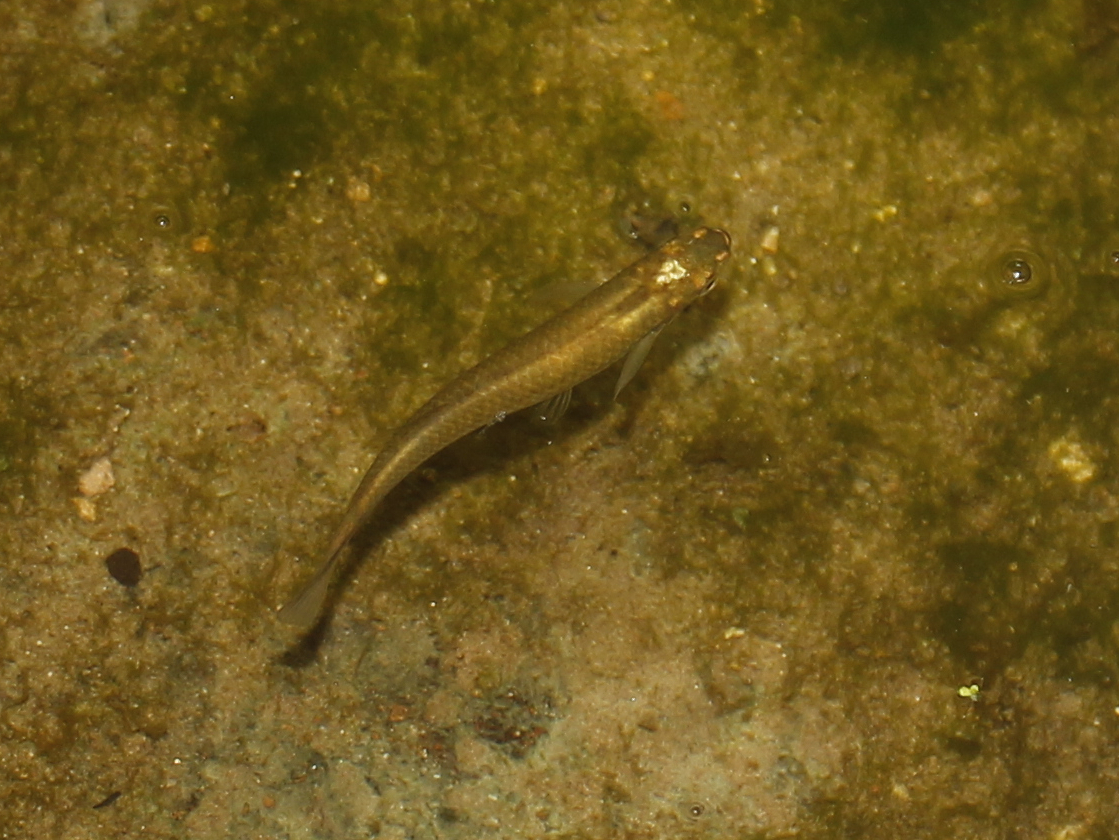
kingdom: Animalia
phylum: Chordata
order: Cyprinodontiformes
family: Fundulidae
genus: Fundulus
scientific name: Fundulus notatus
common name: Blackstripe topminnow
